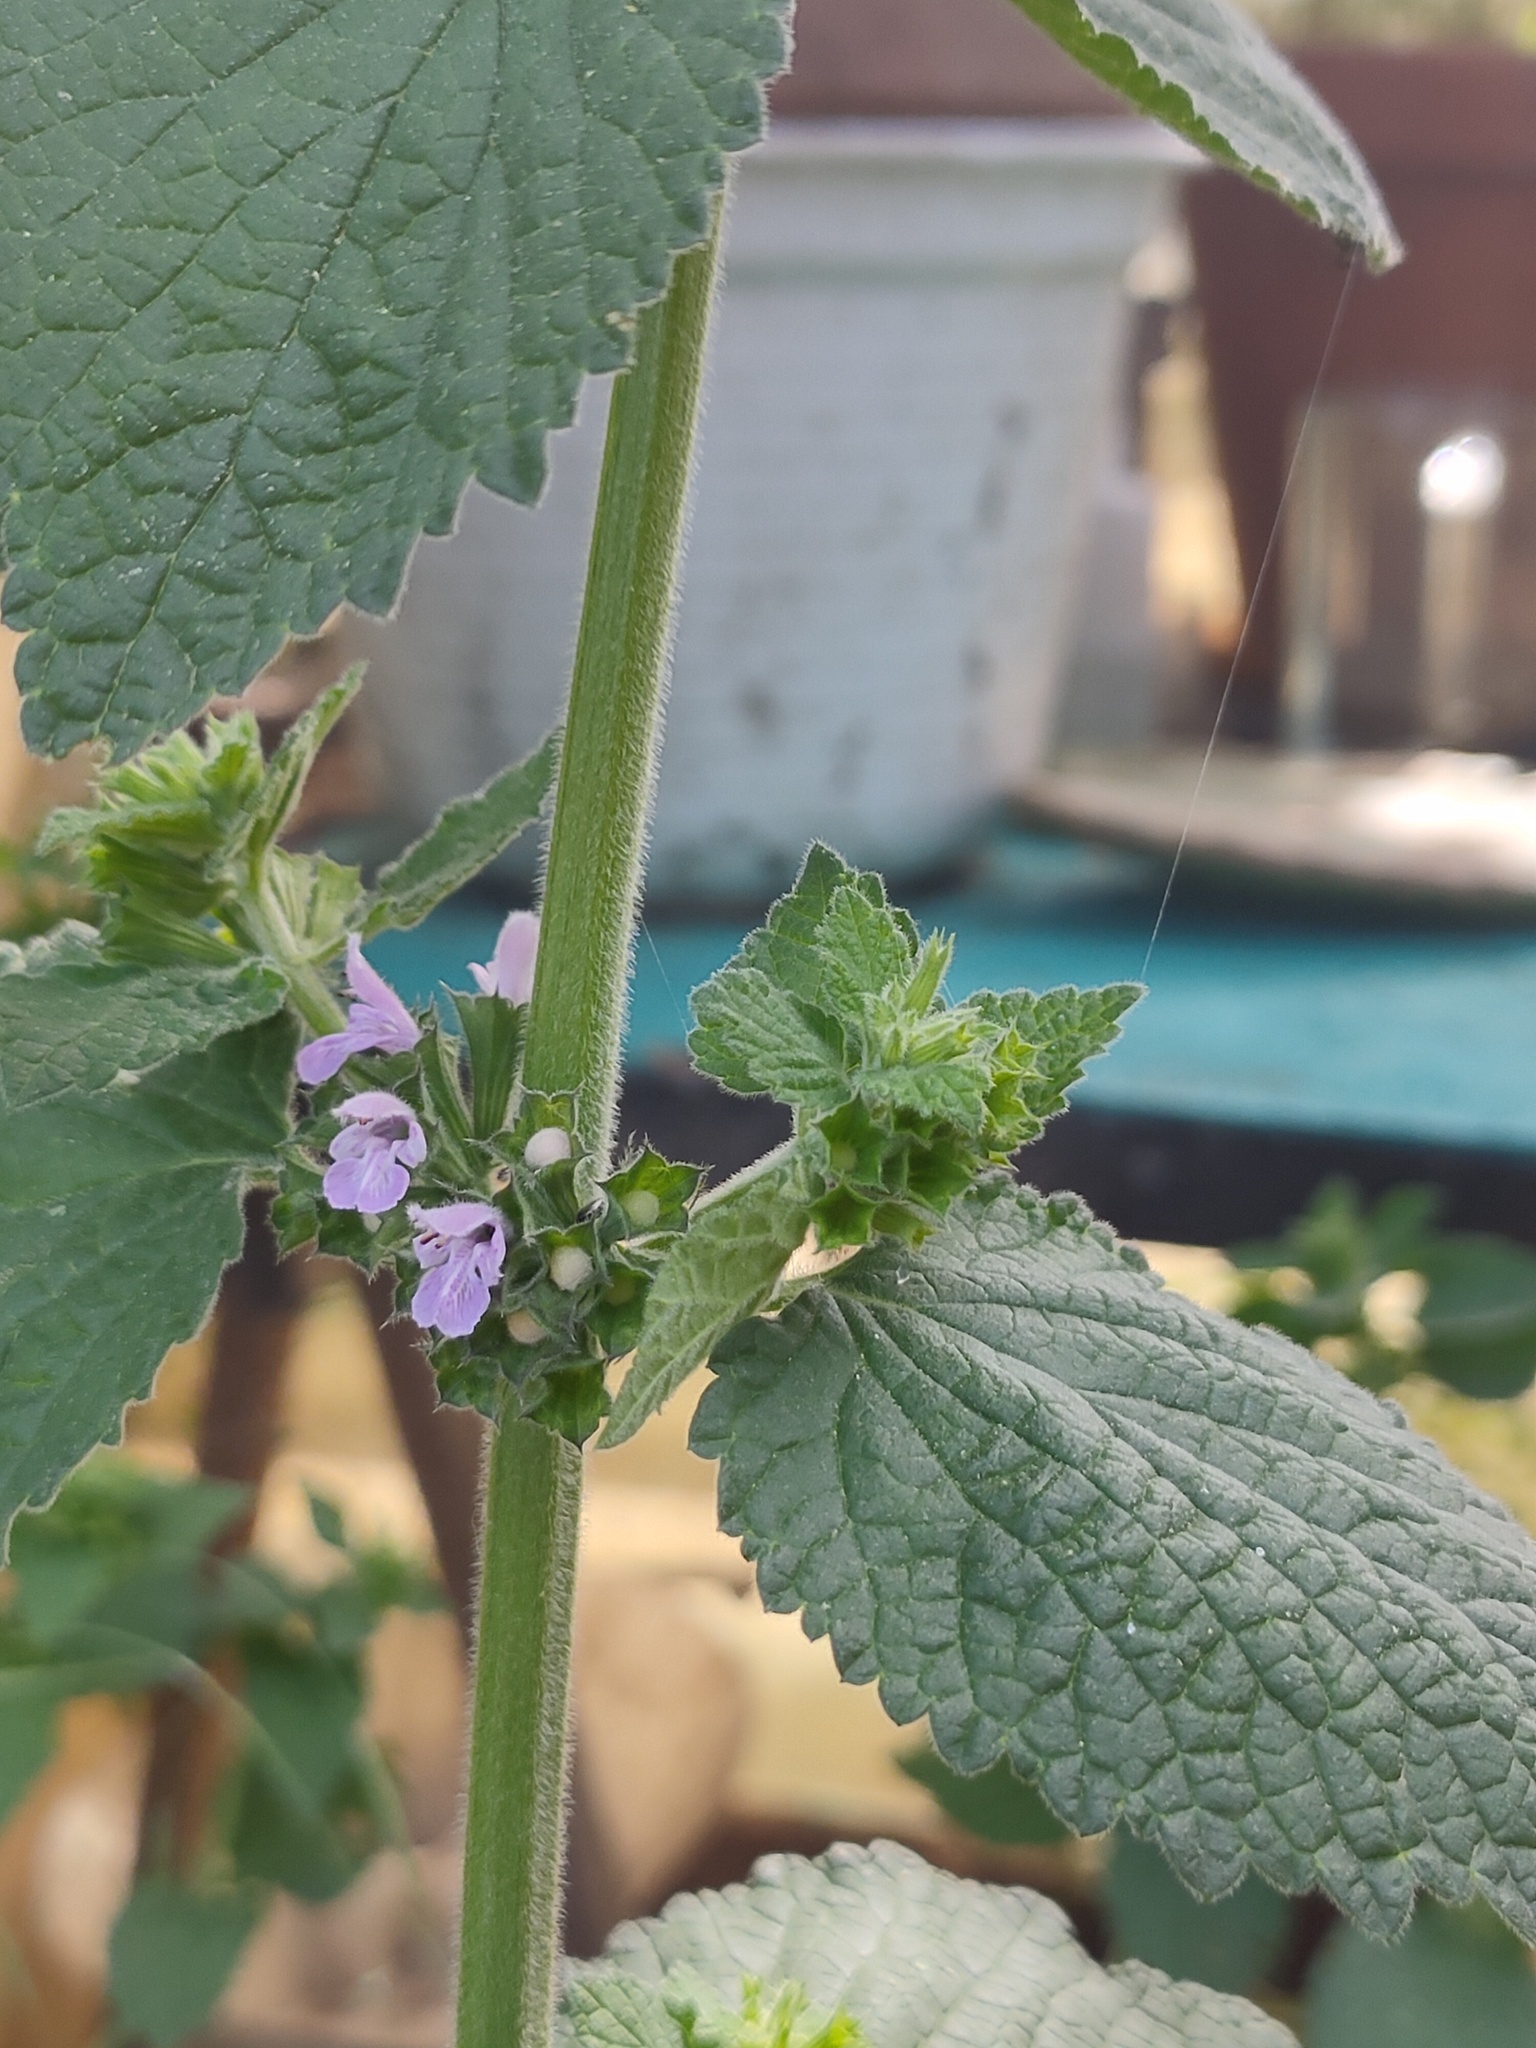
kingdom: Plantae
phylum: Tracheophyta
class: Magnoliopsida
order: Lamiales
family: Lamiaceae
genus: Ballota
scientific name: Ballota nigra
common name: Black horehound
